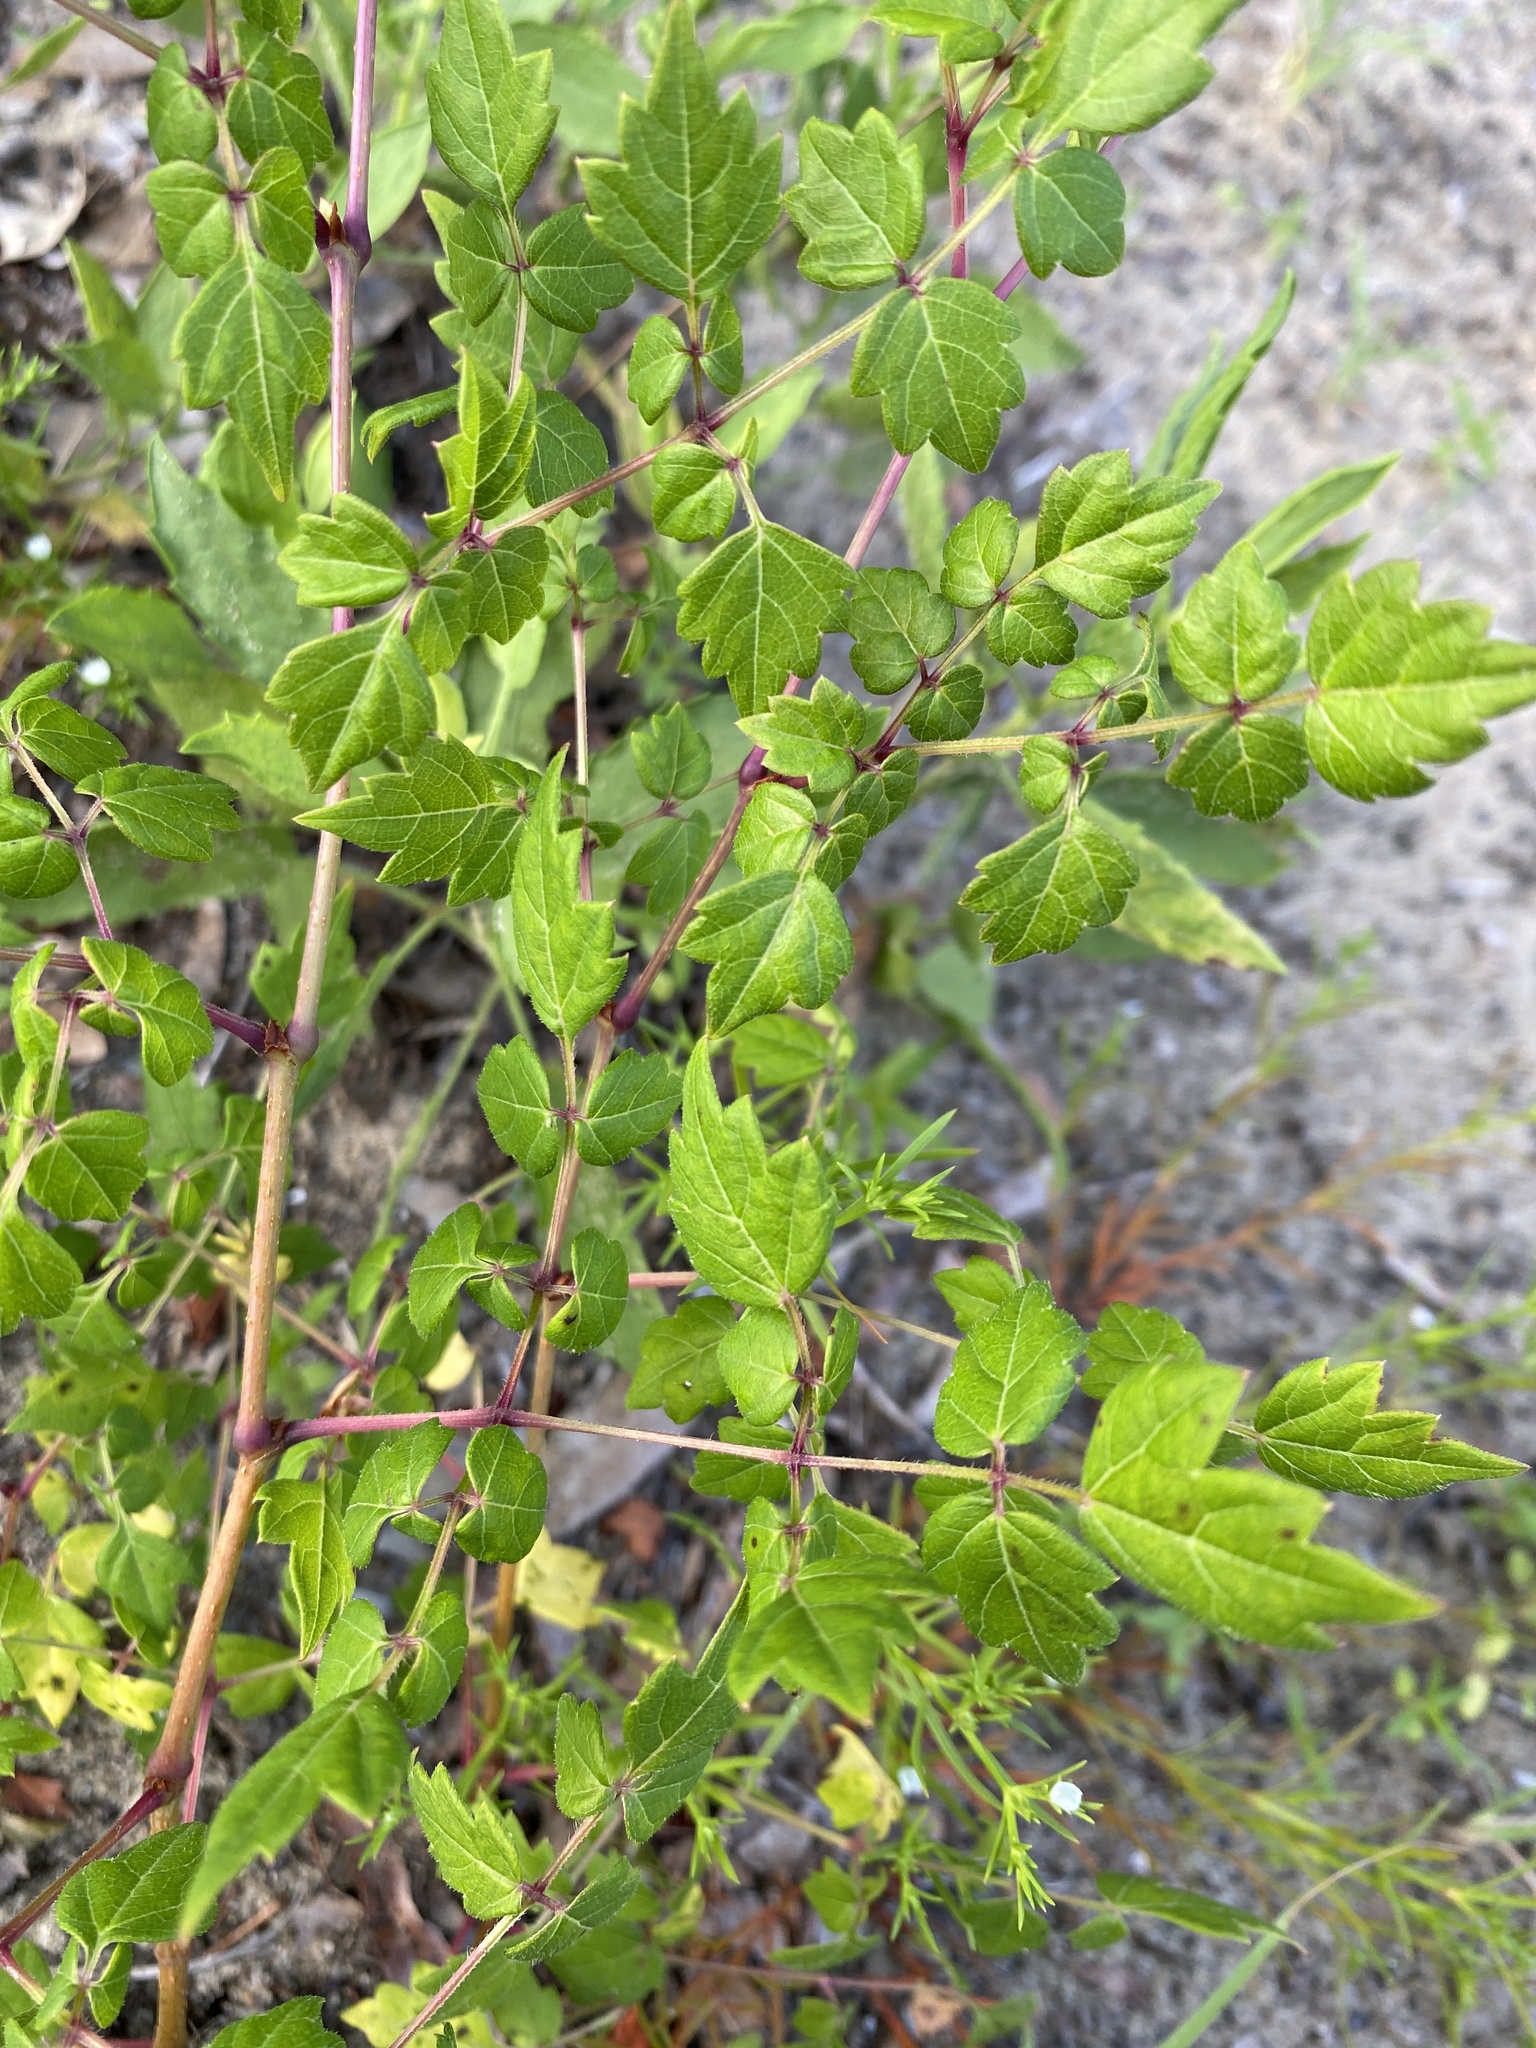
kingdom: Plantae
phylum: Tracheophyta
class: Magnoliopsida
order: Vitales
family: Vitaceae
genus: Nekemias
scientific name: Nekemias arborea
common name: Peppervine
